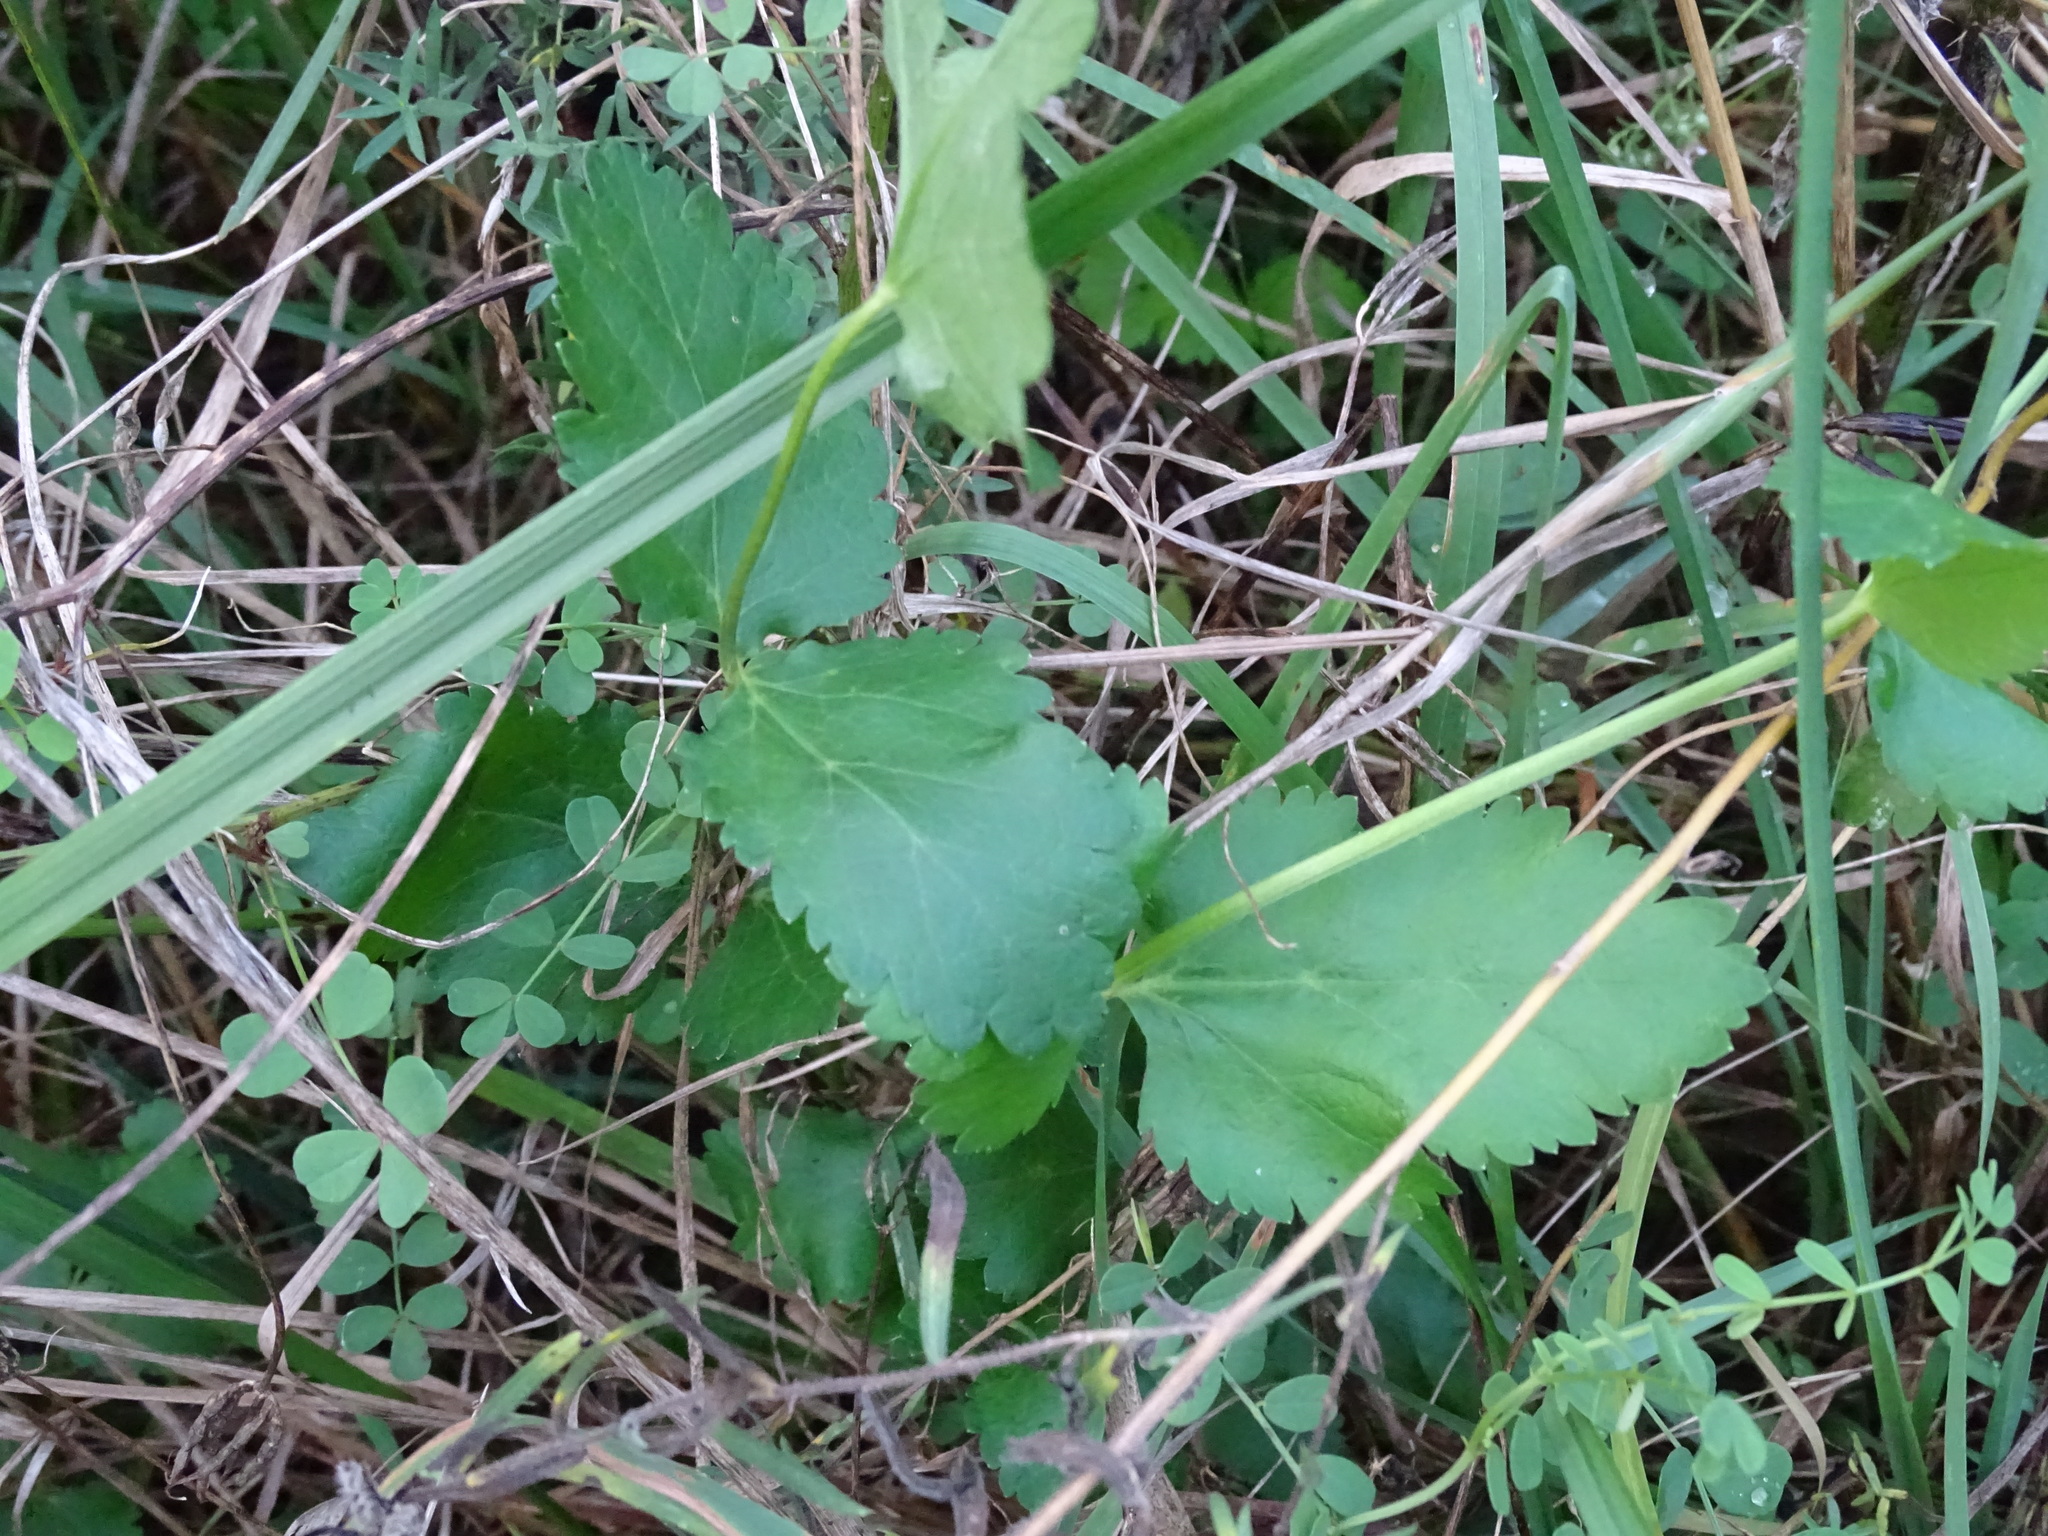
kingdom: Plantae
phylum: Tracheophyta
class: Magnoliopsida
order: Apiales
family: Apiaceae
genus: Pastinaca
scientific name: Pastinaca sativa
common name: Wild parsnip
